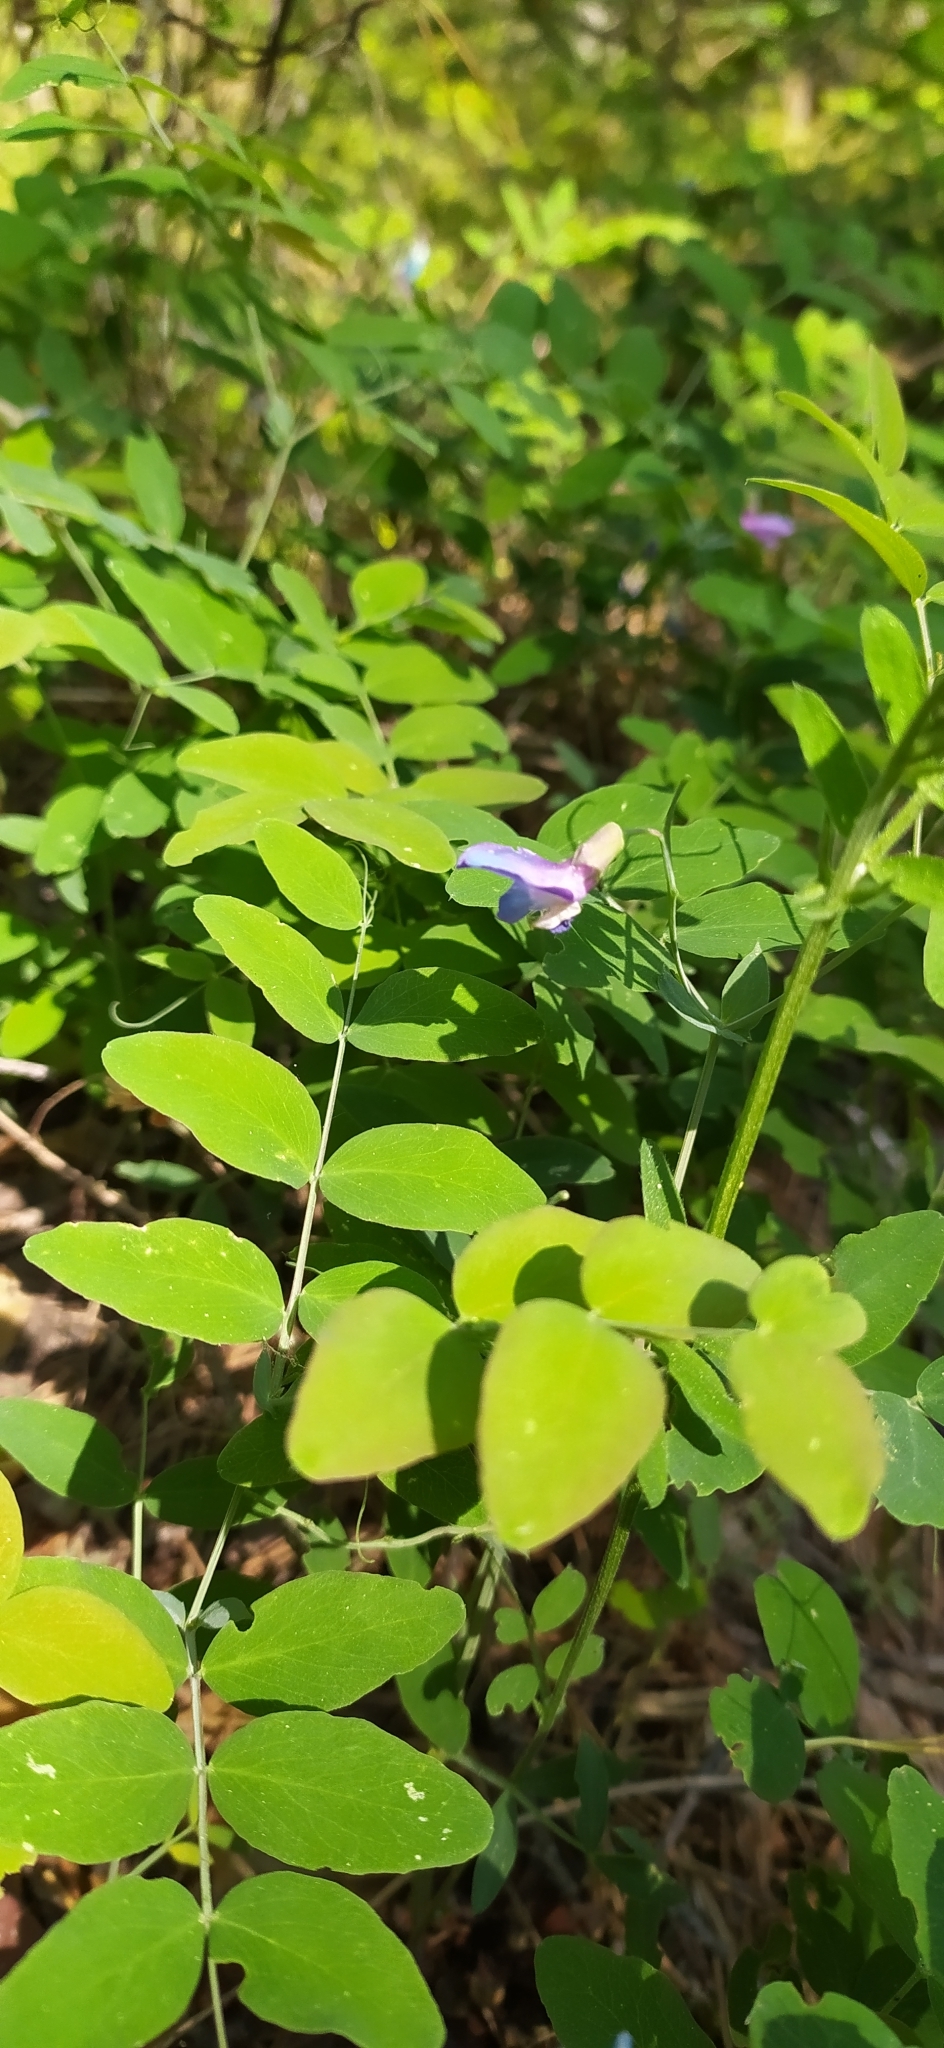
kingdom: Plantae
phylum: Tracheophyta
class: Magnoliopsida
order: Fabales
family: Fabaceae
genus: Lathyrus
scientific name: Lathyrus humilis
